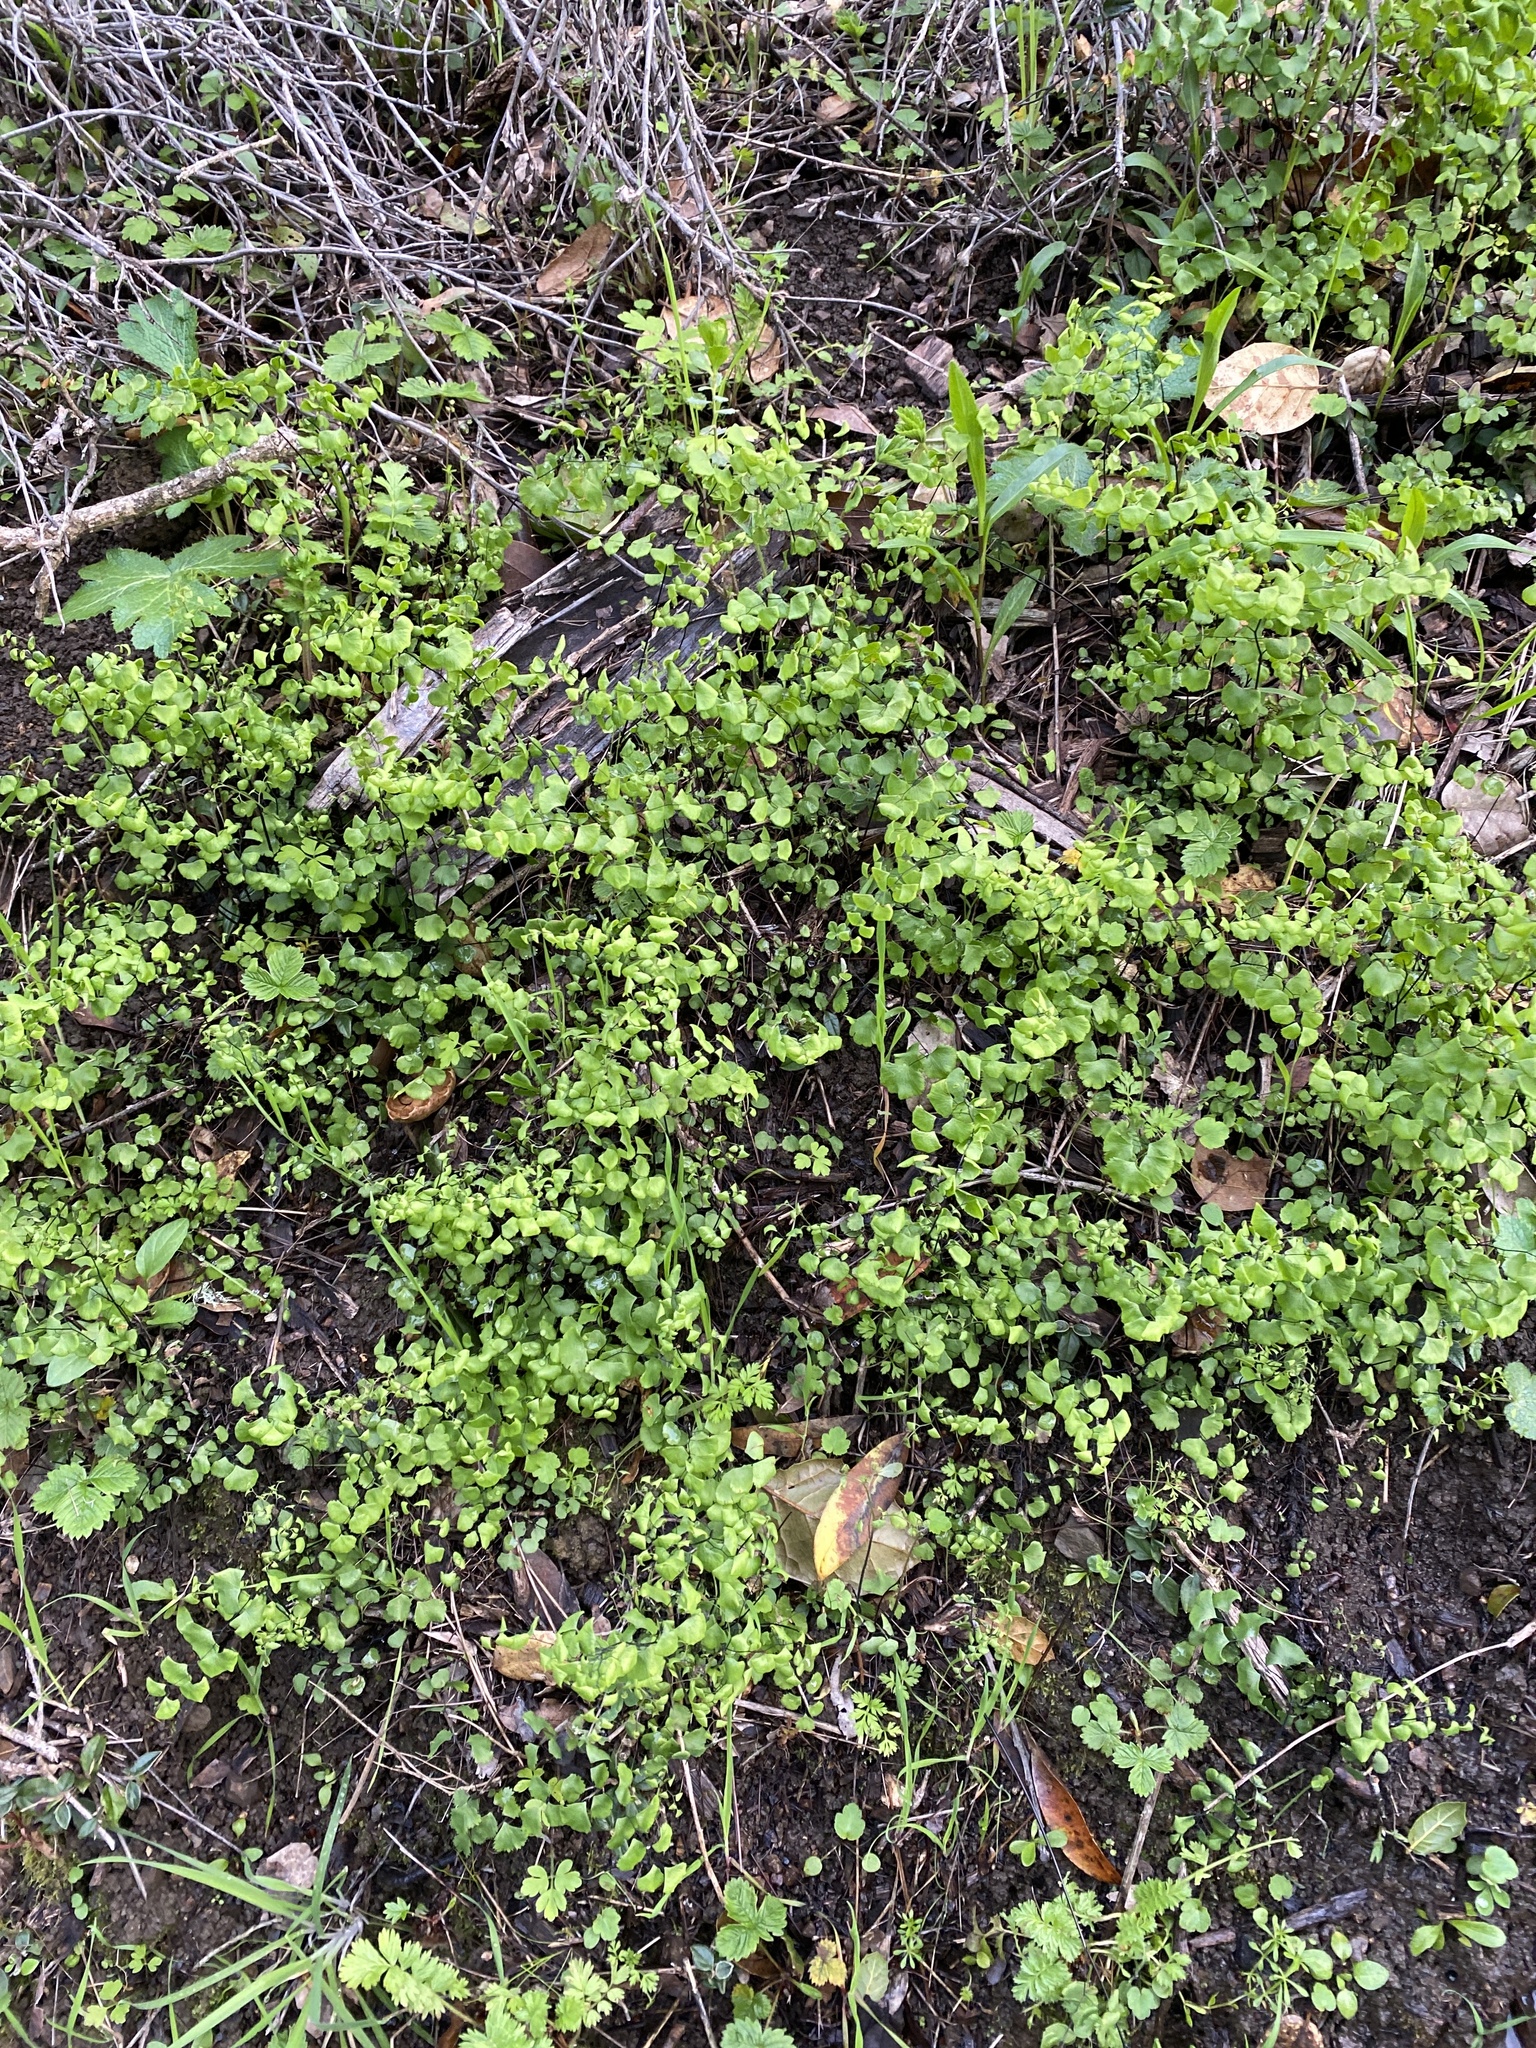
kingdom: Plantae
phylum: Tracheophyta
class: Polypodiopsida
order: Polypodiales
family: Pteridaceae
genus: Adiantum
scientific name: Adiantum jordanii
